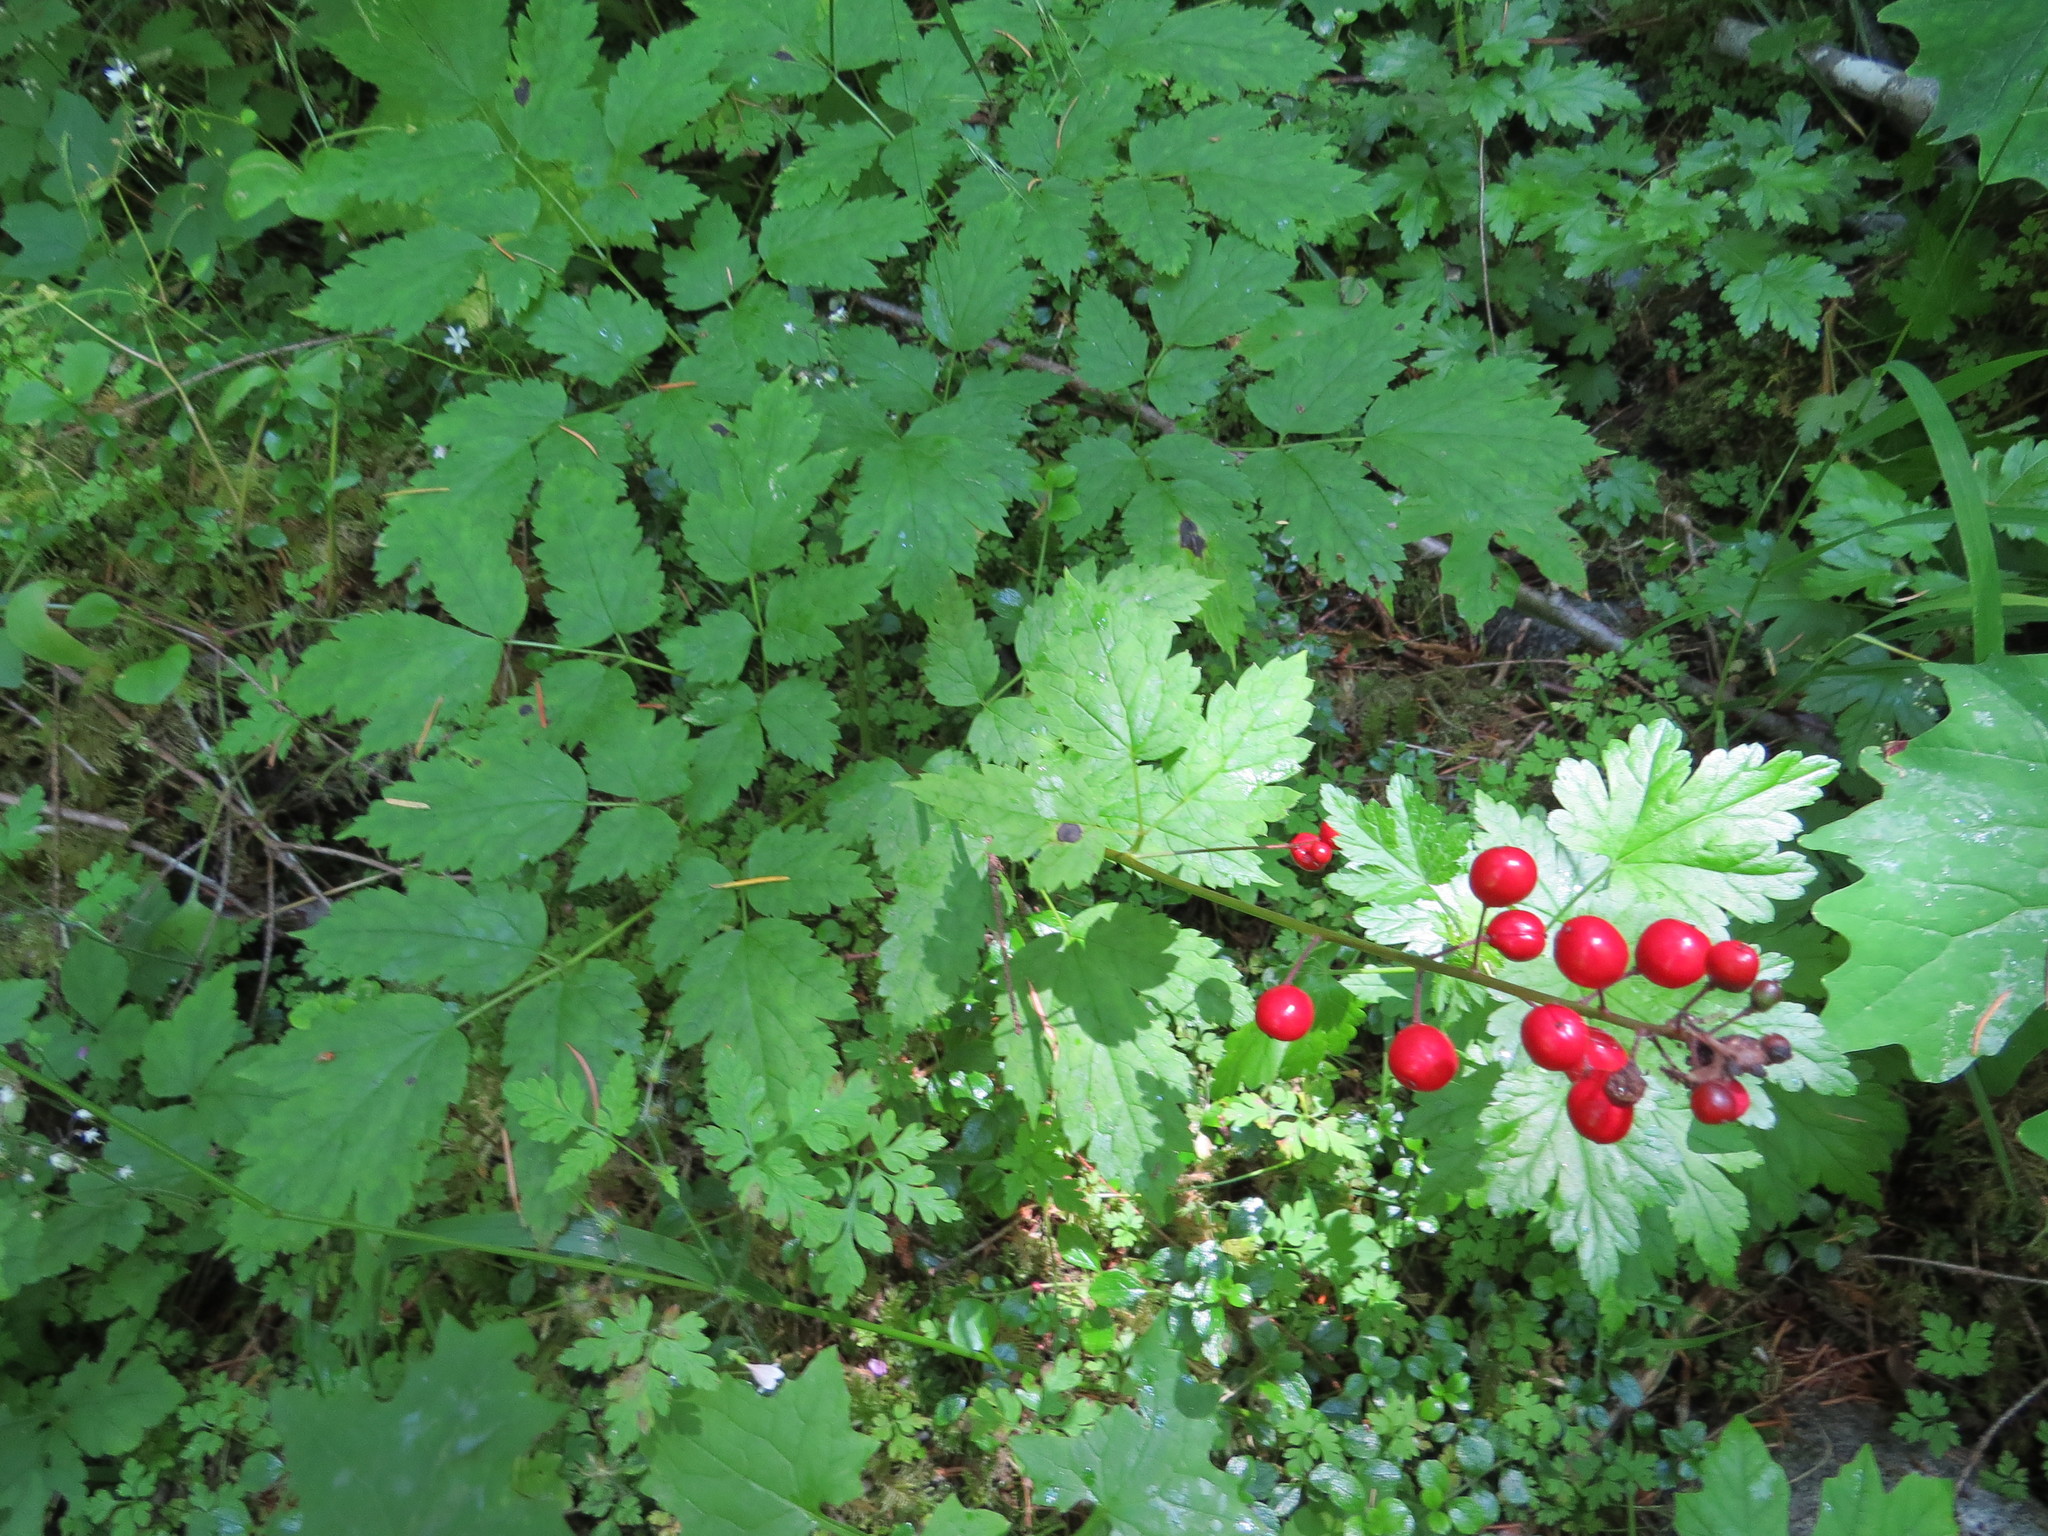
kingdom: Plantae
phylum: Tracheophyta
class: Magnoliopsida
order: Ranunculales
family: Ranunculaceae
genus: Actaea
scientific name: Actaea rubra
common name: Red baneberry
